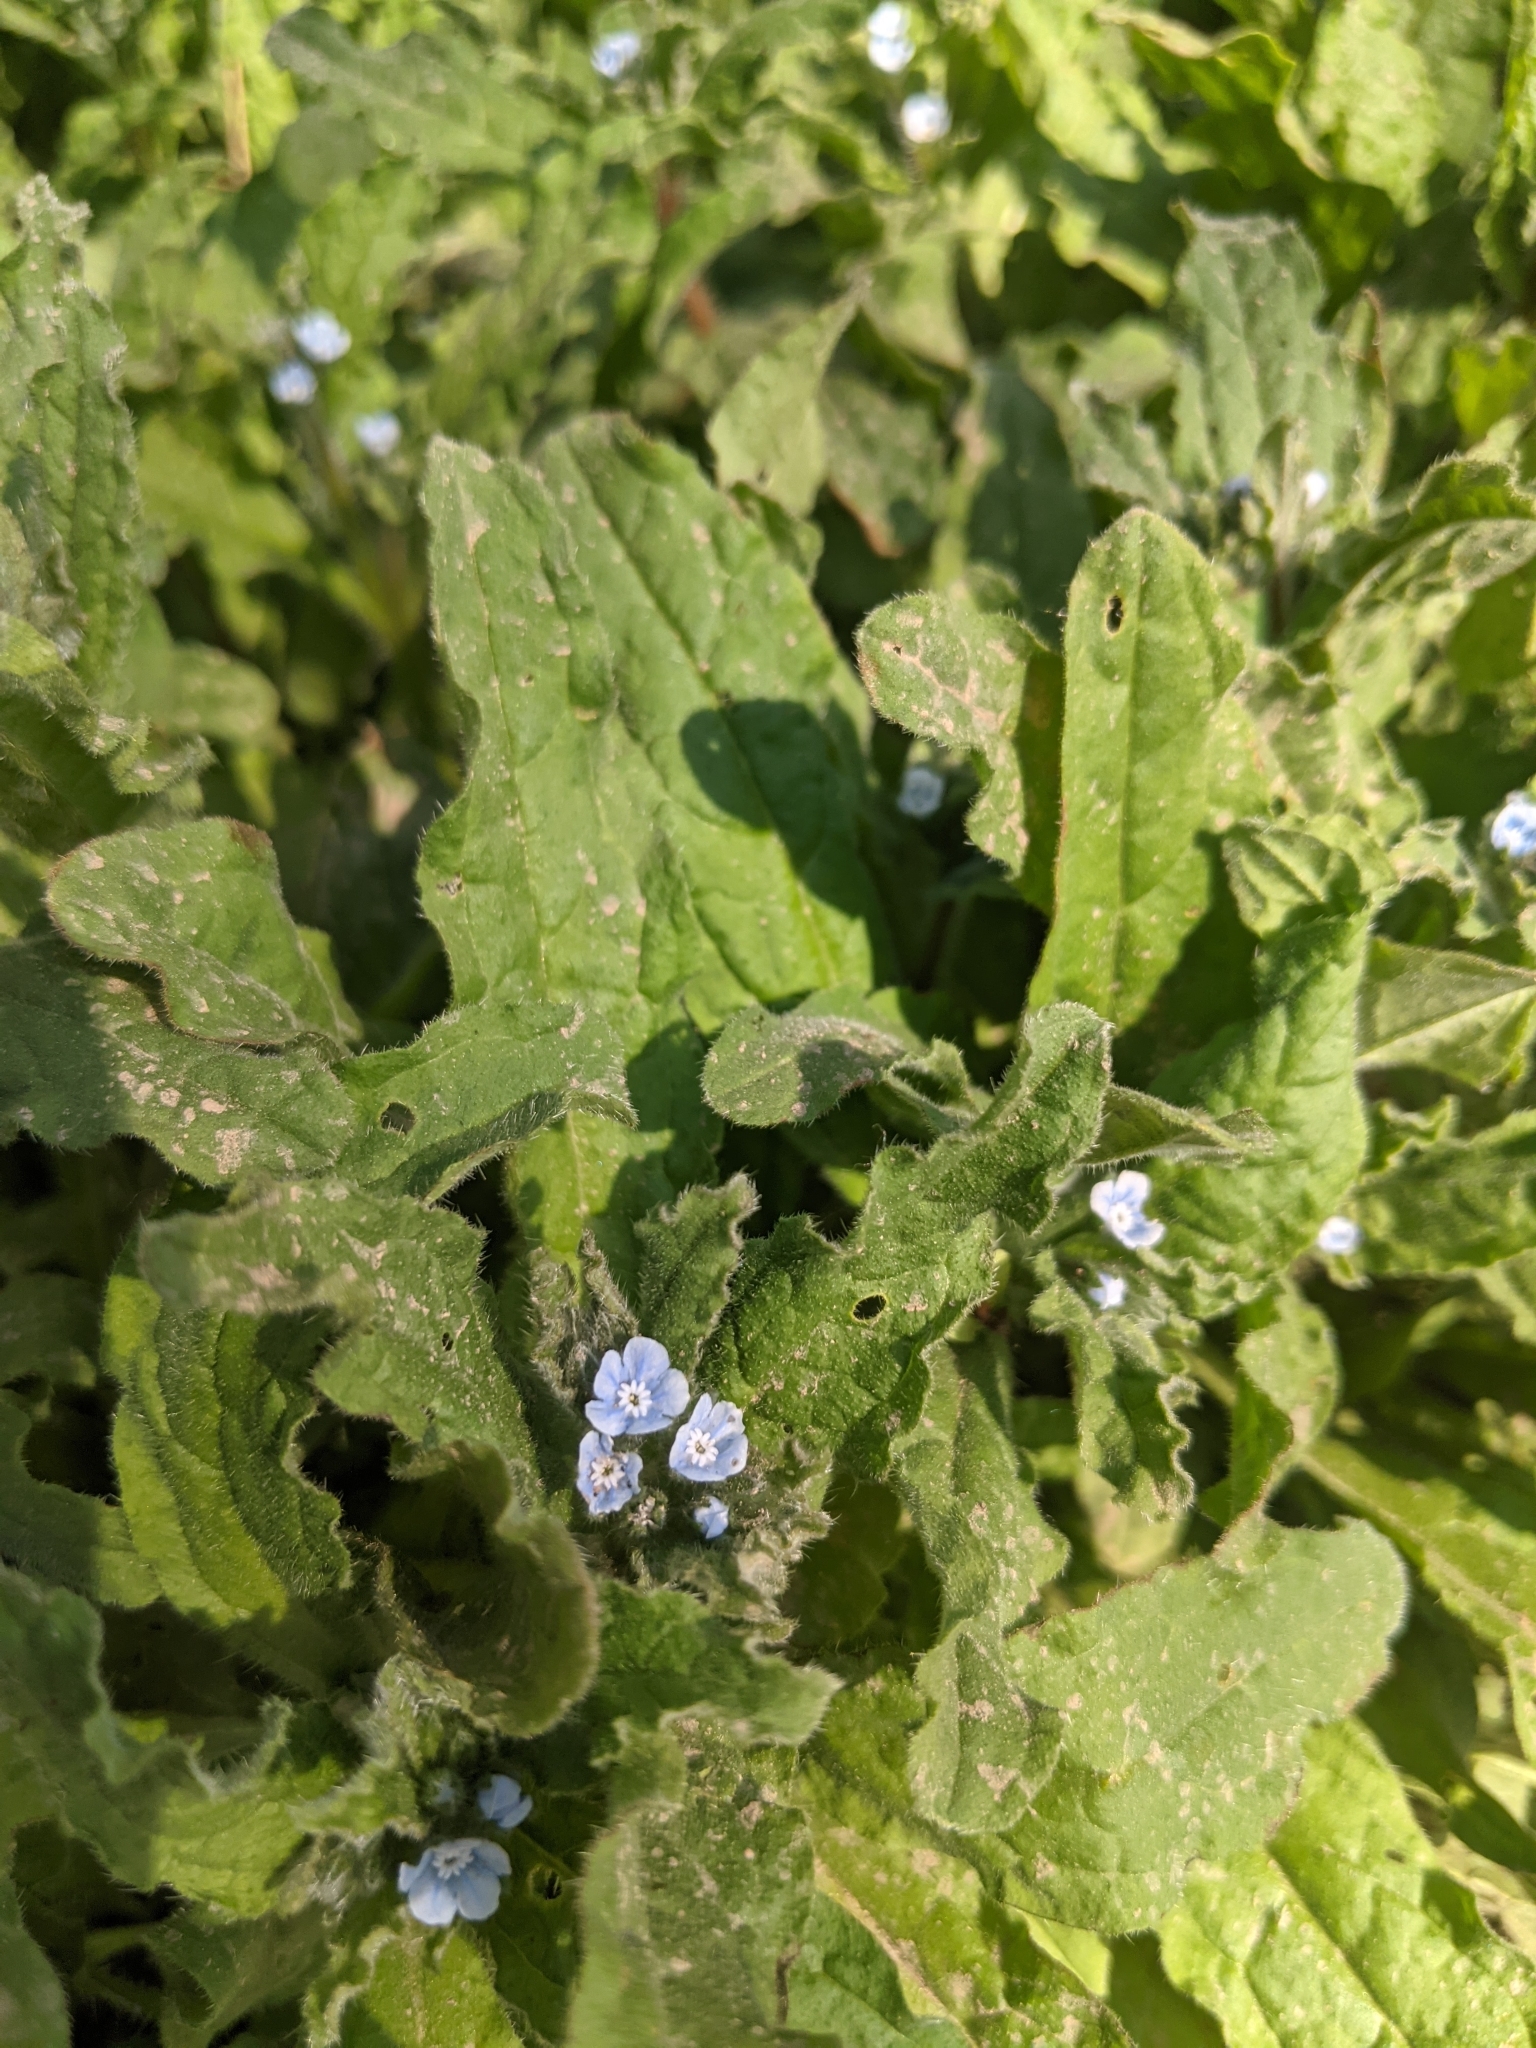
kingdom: Plantae
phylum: Tracheophyta
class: Magnoliopsida
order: Boraginales
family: Boraginaceae
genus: Bothriospermum
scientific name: Bothriospermum chinense
